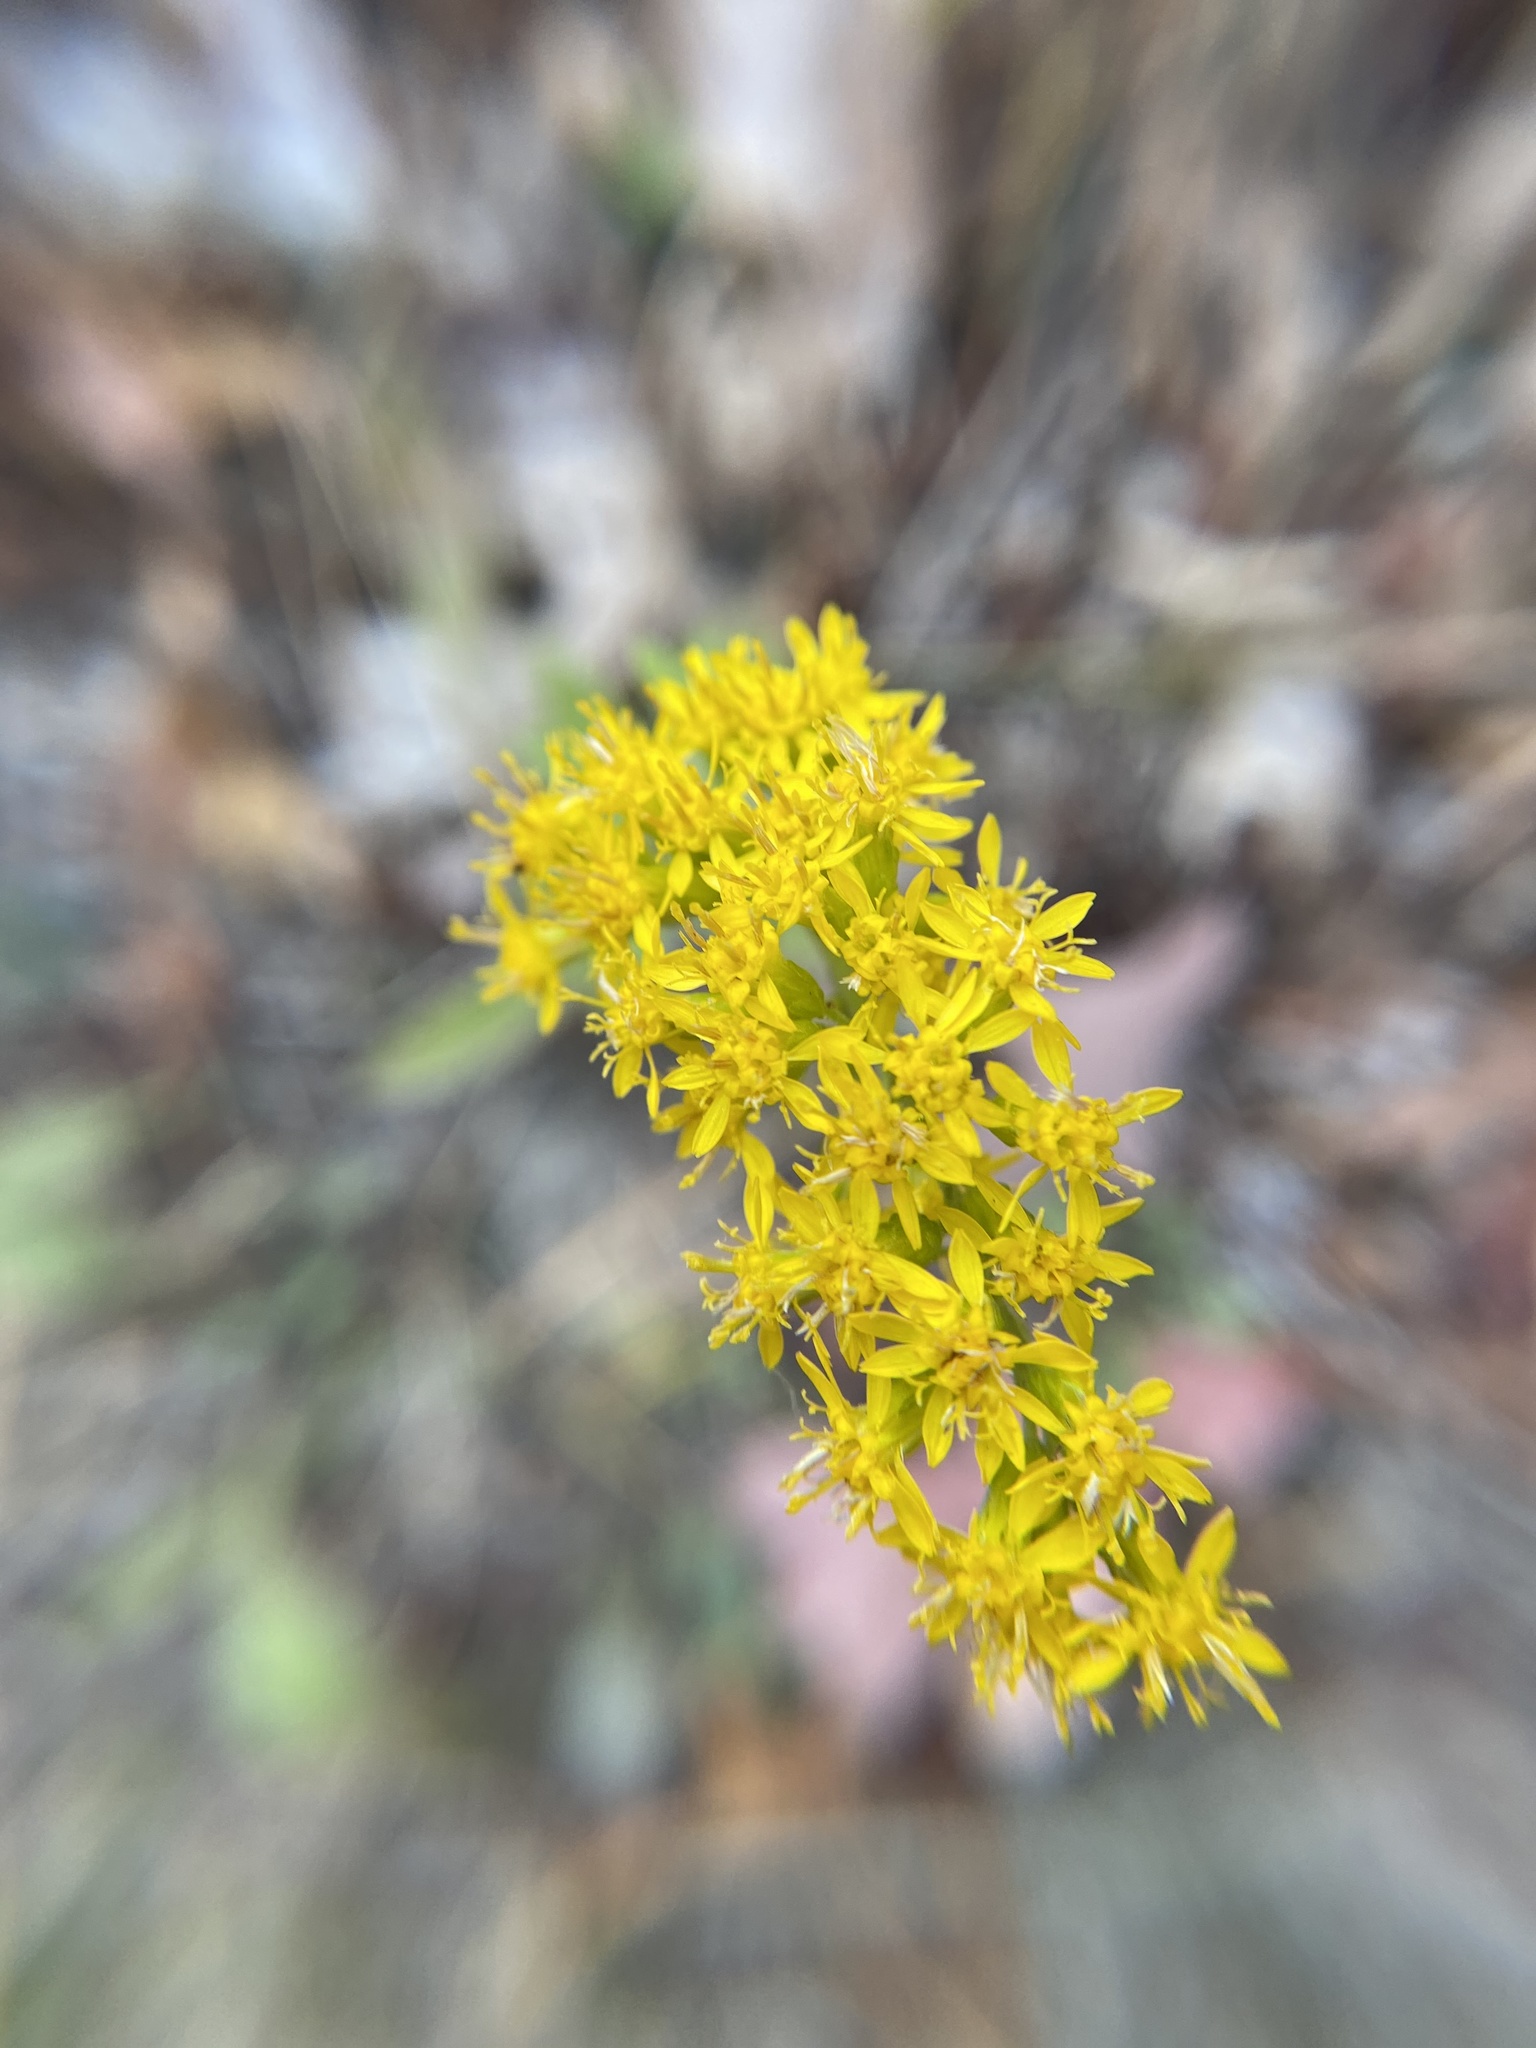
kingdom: Plantae
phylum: Tracheophyta
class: Magnoliopsida
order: Asterales
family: Asteraceae
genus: Solidago
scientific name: Solidago nemoralis
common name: Grey goldenrod
